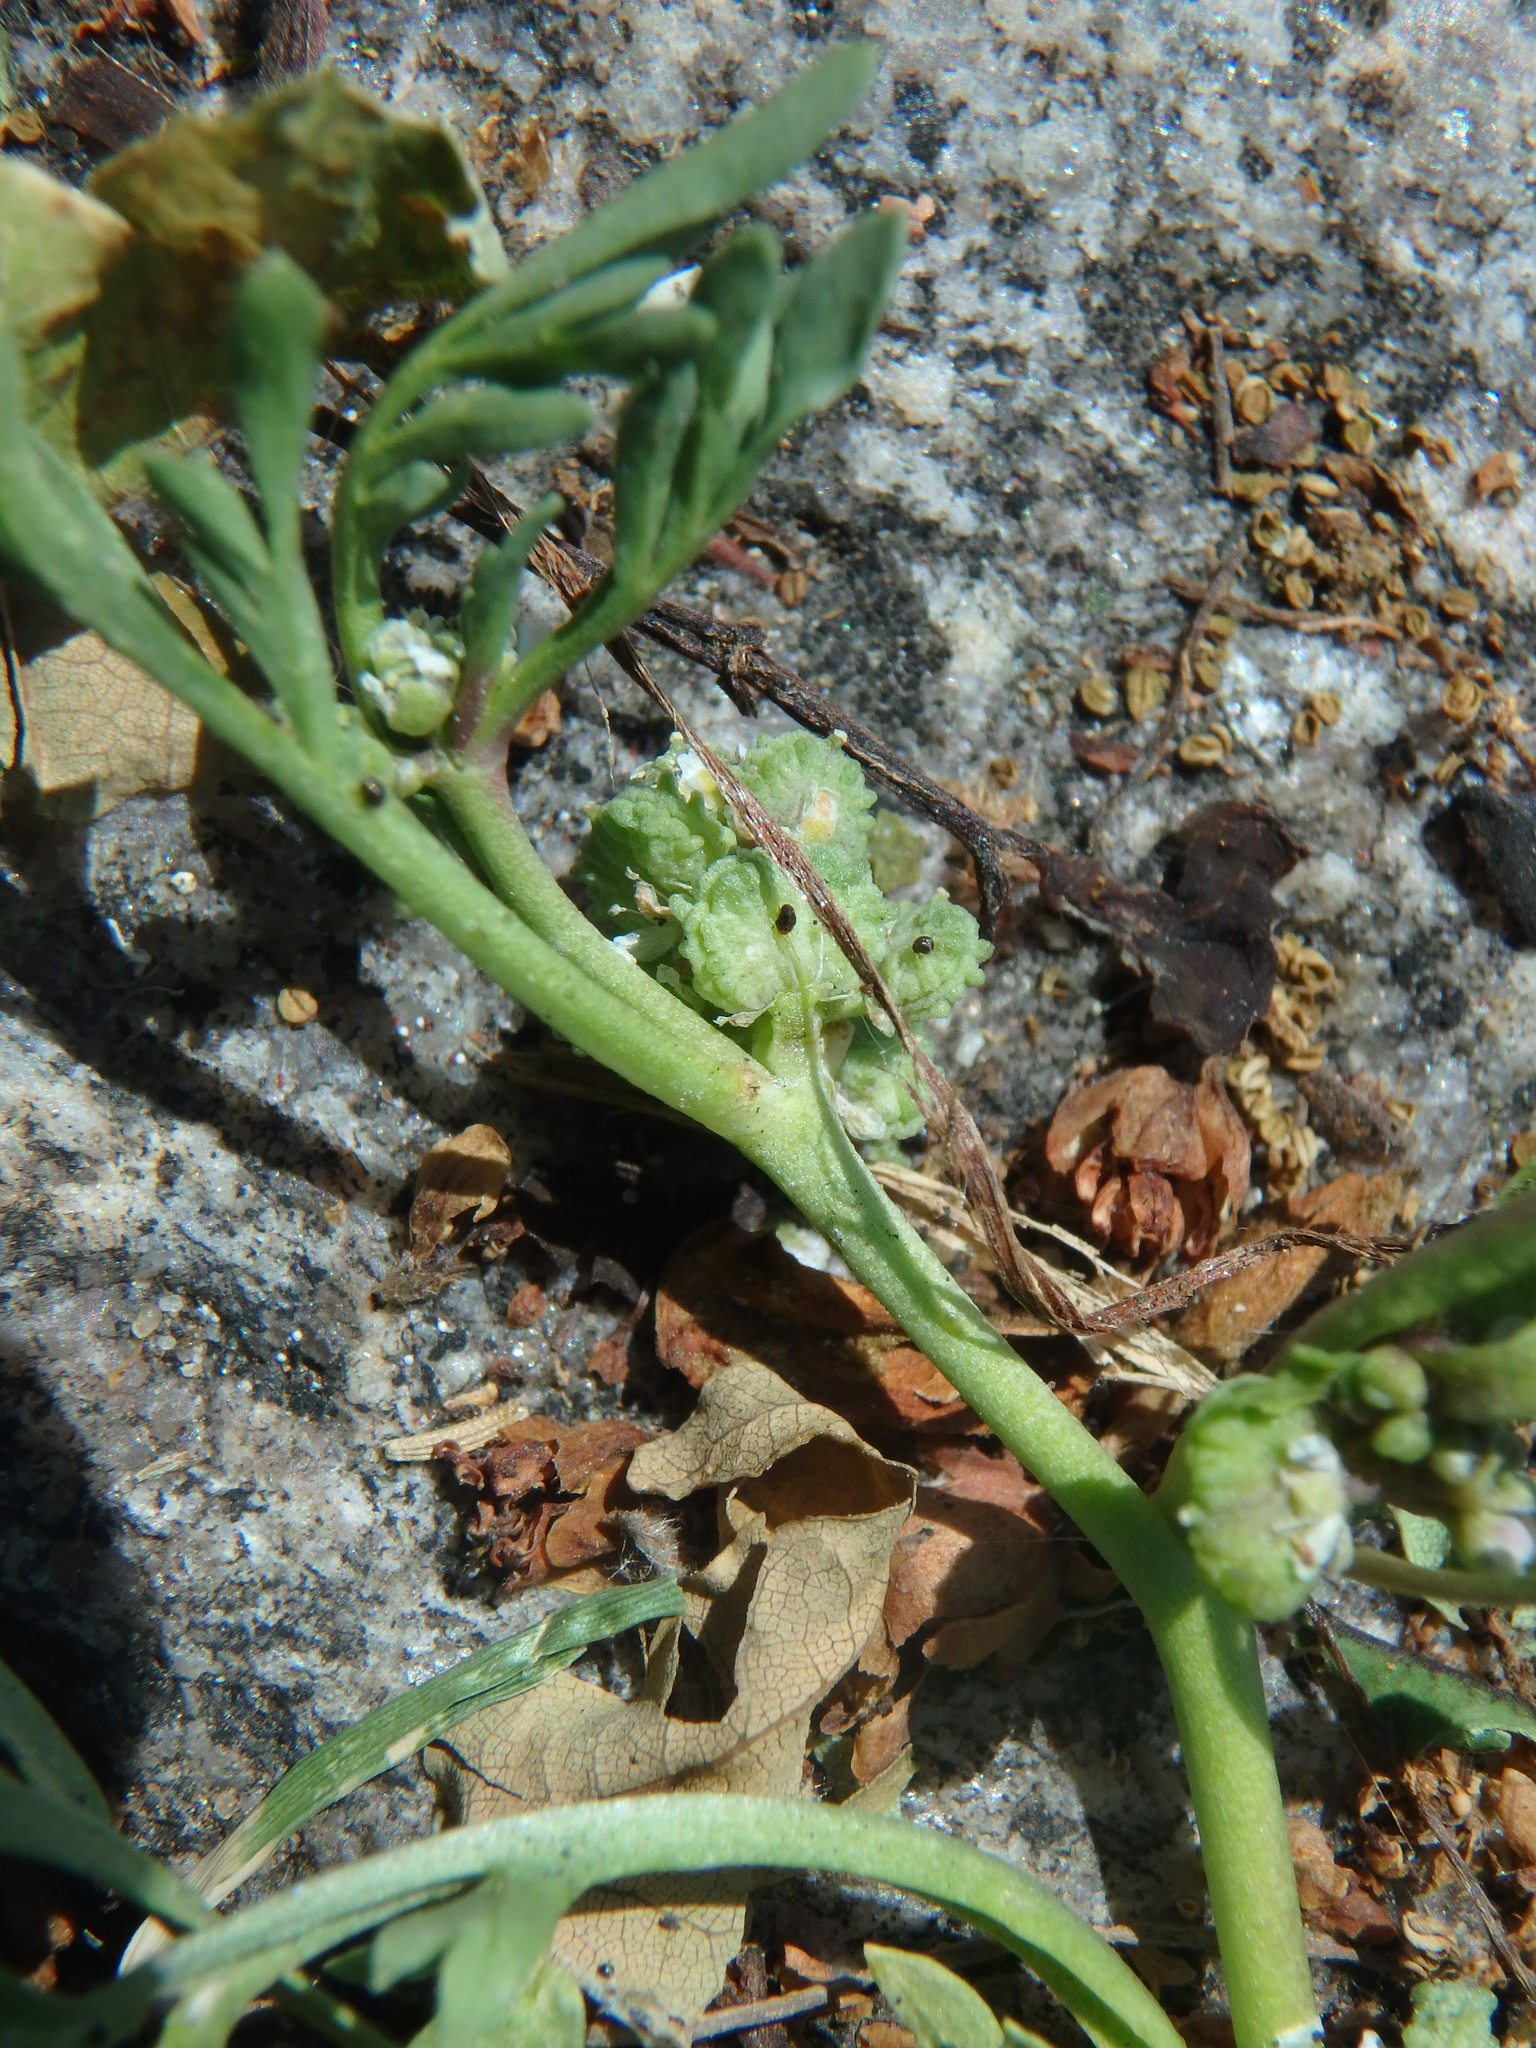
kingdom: Plantae
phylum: Tracheophyta
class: Magnoliopsida
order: Brassicales
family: Brassicaceae
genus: Lepidium
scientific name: Lepidium coronopus
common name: Greater swinecress
